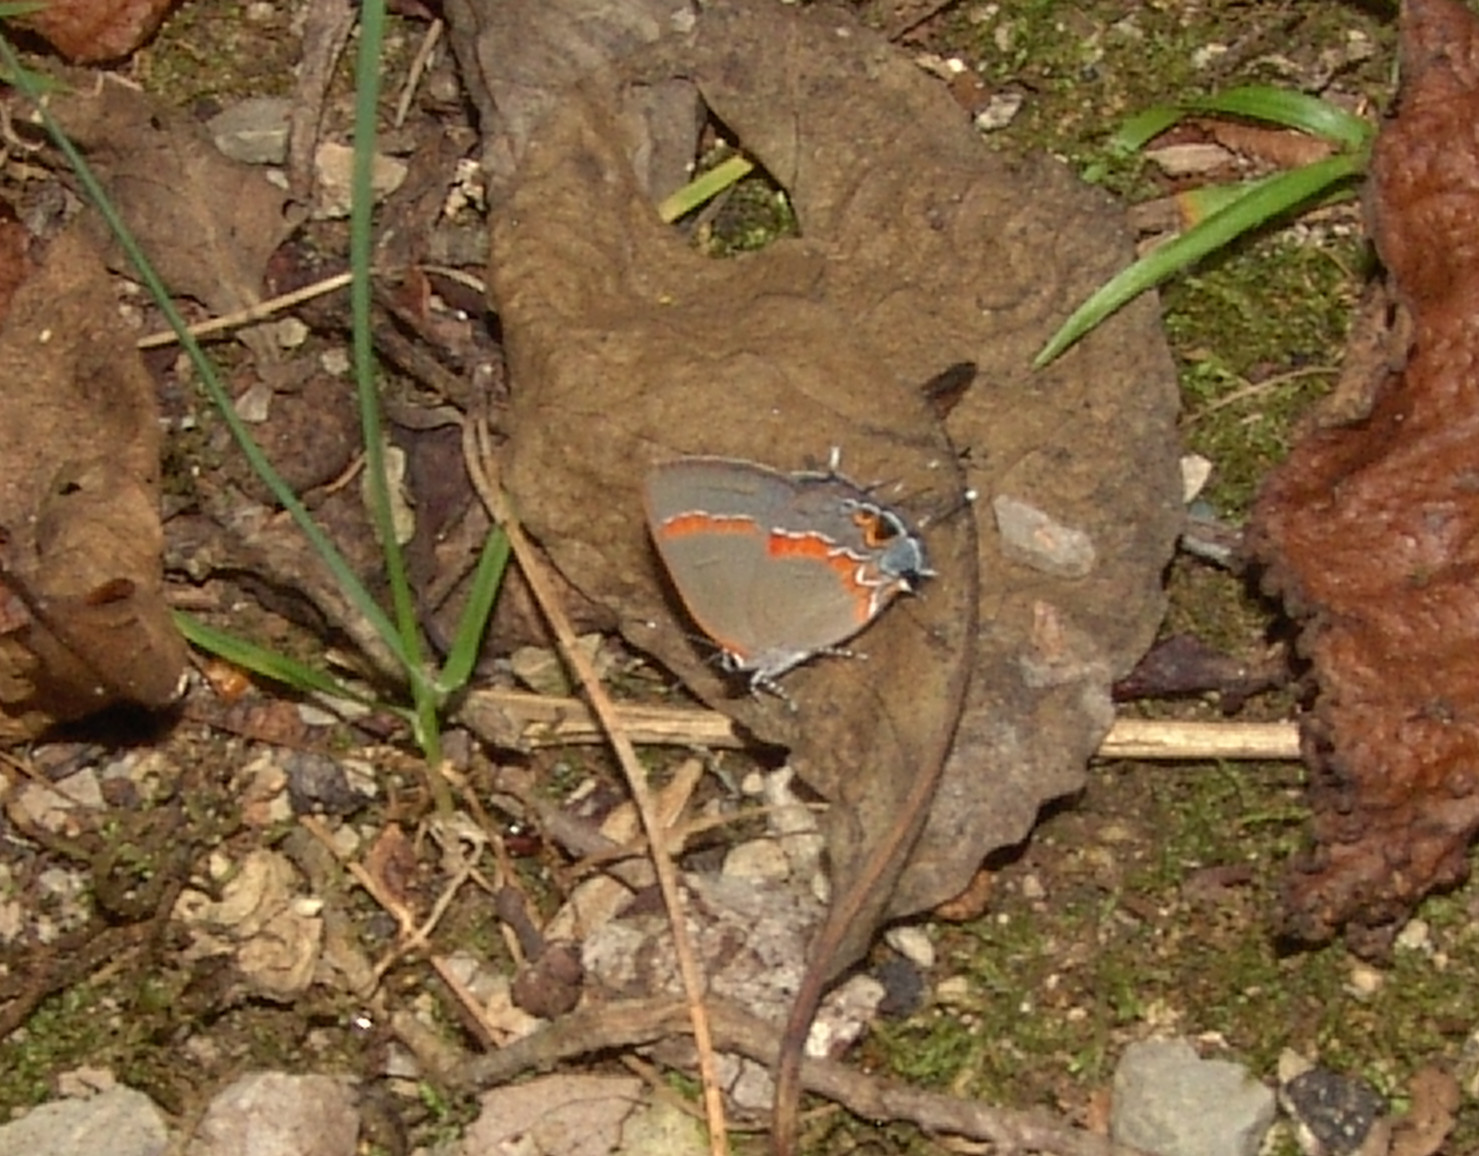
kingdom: Animalia
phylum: Arthropoda
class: Insecta
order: Lepidoptera
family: Lycaenidae
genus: Calycopis
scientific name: Calycopis cecrops
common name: Red-banded hairstreak
